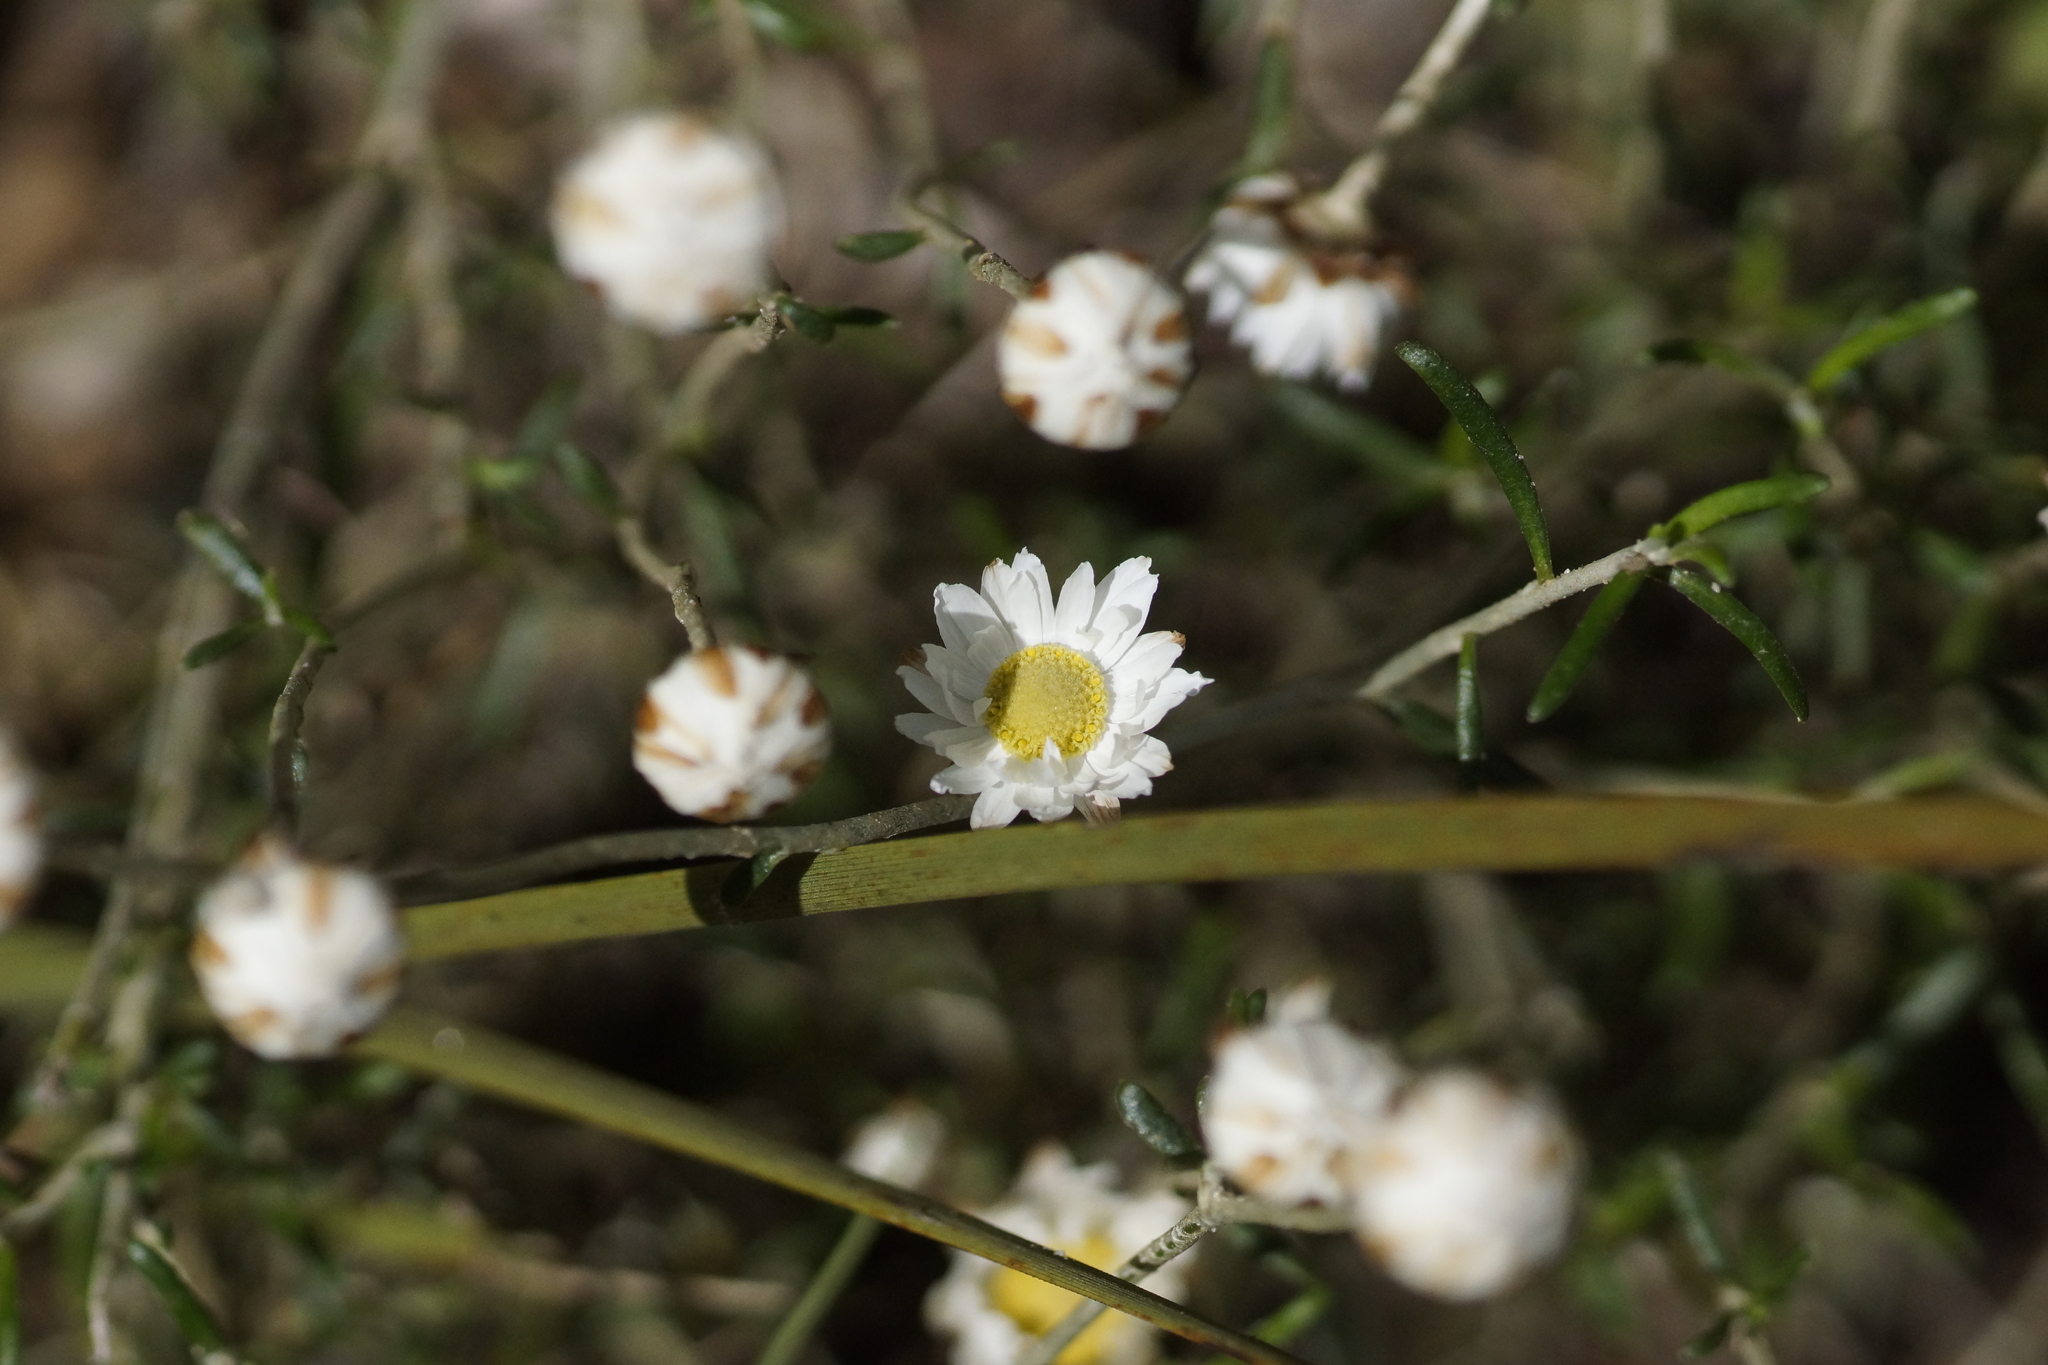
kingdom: Plantae
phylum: Tracheophyta
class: Magnoliopsida
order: Asterales
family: Asteraceae
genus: Argentipallium
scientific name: Argentipallium obtusifolium
